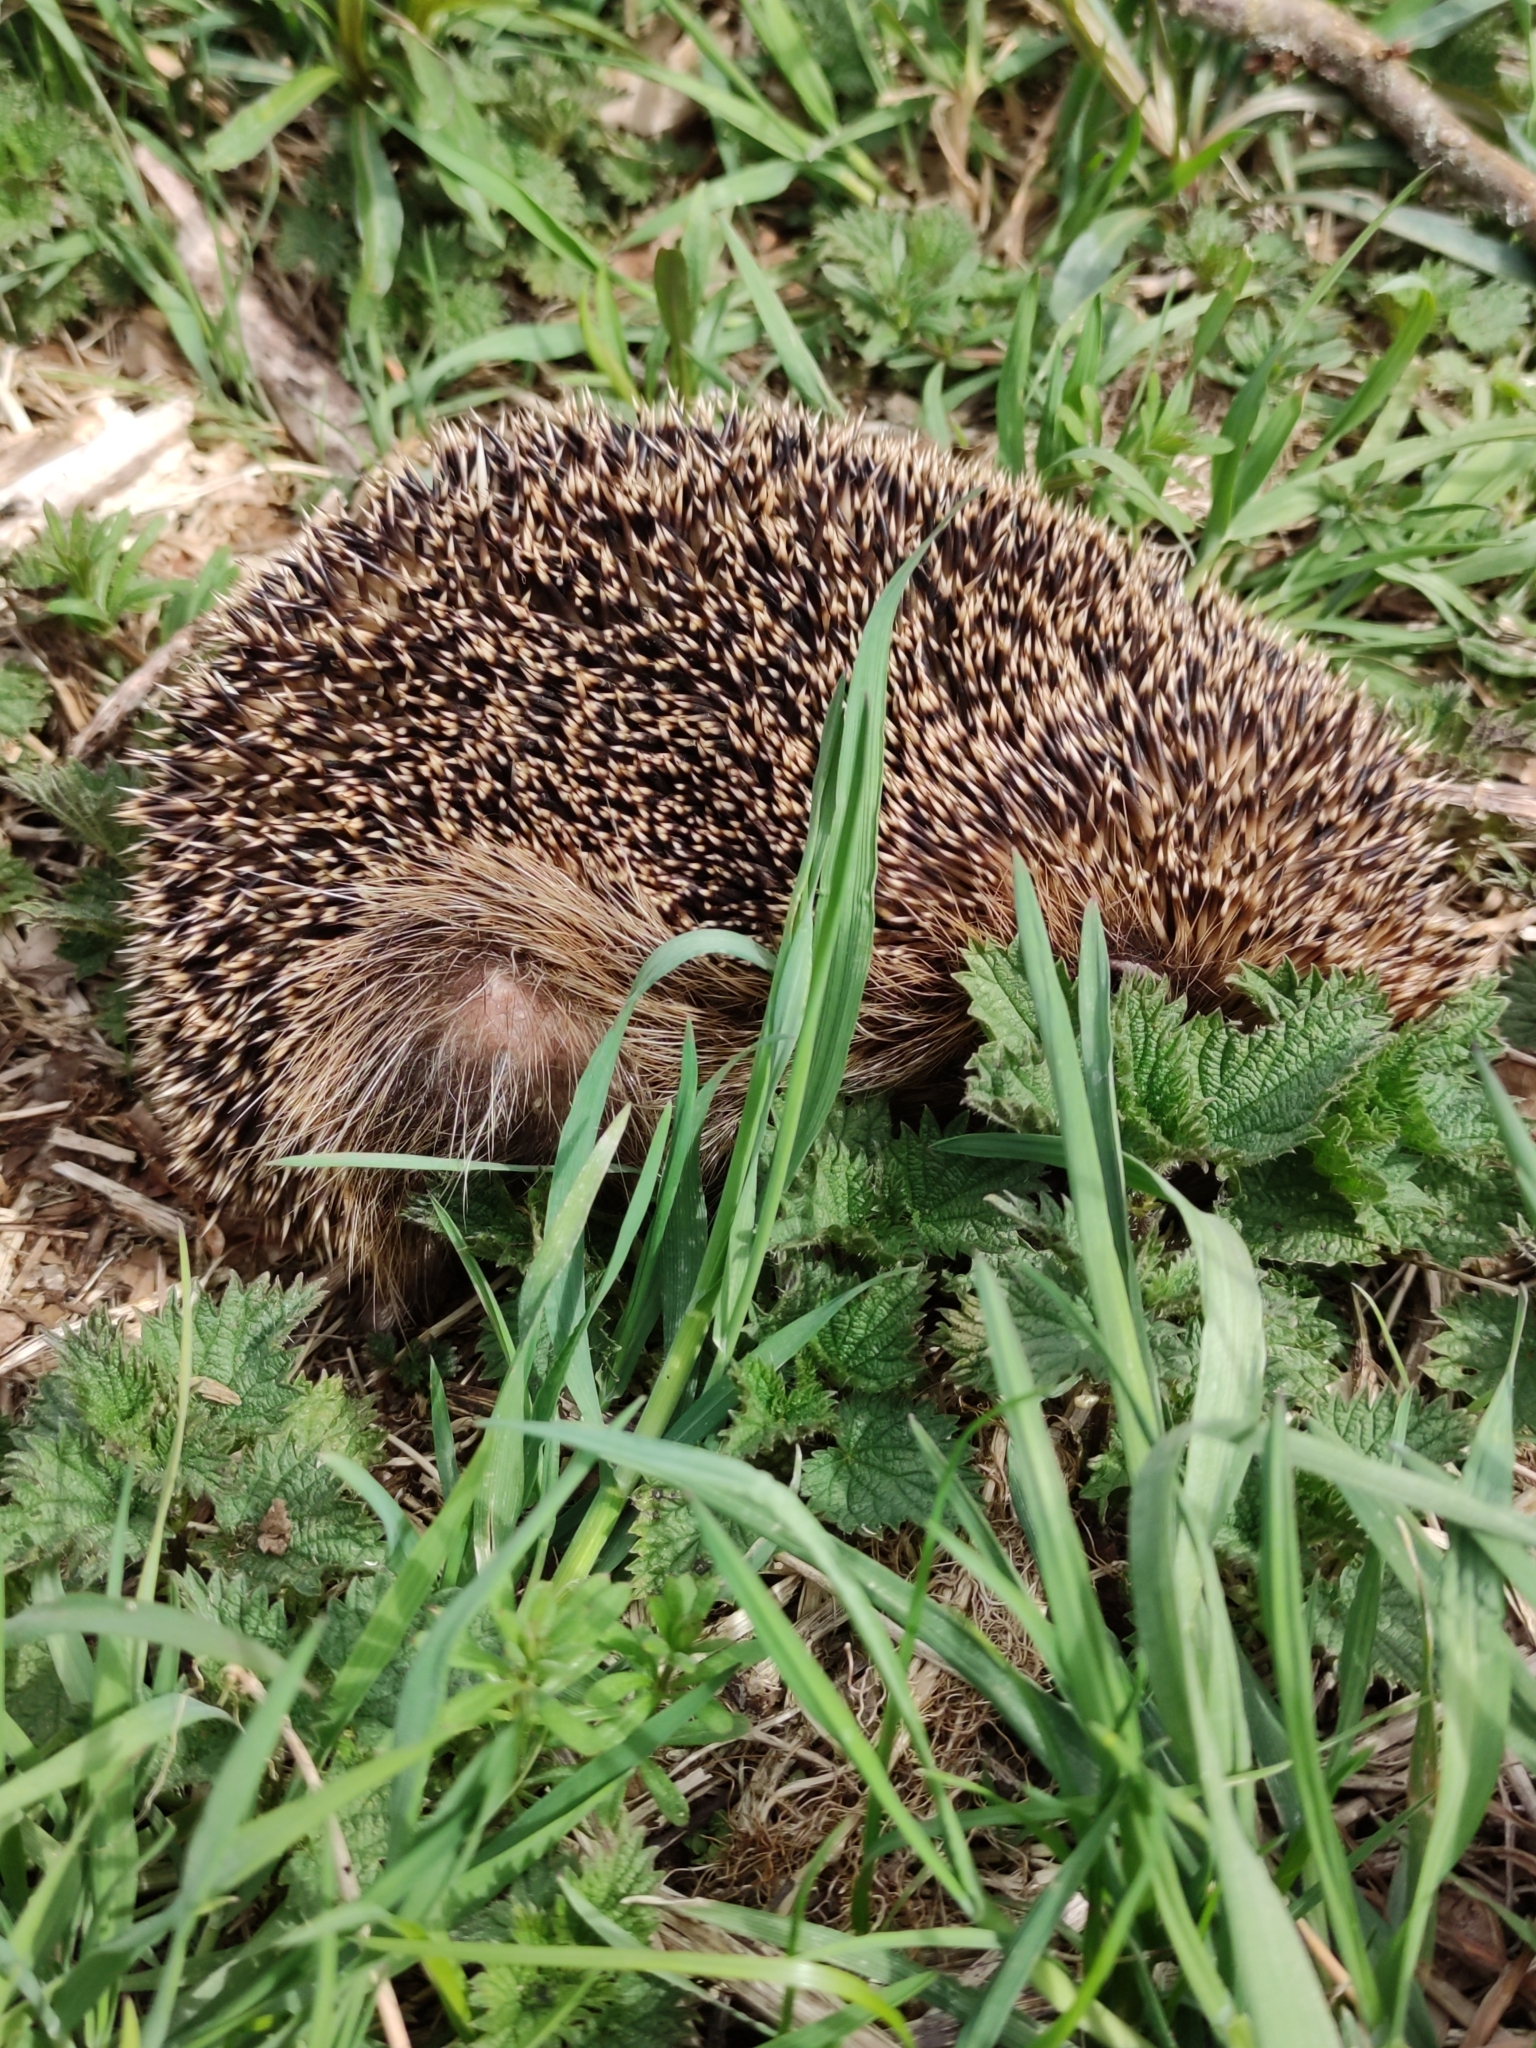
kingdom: Animalia
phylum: Chordata
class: Mammalia
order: Erinaceomorpha
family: Erinaceidae
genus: Erinaceus
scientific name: Erinaceus europaeus
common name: West european hedgehog
